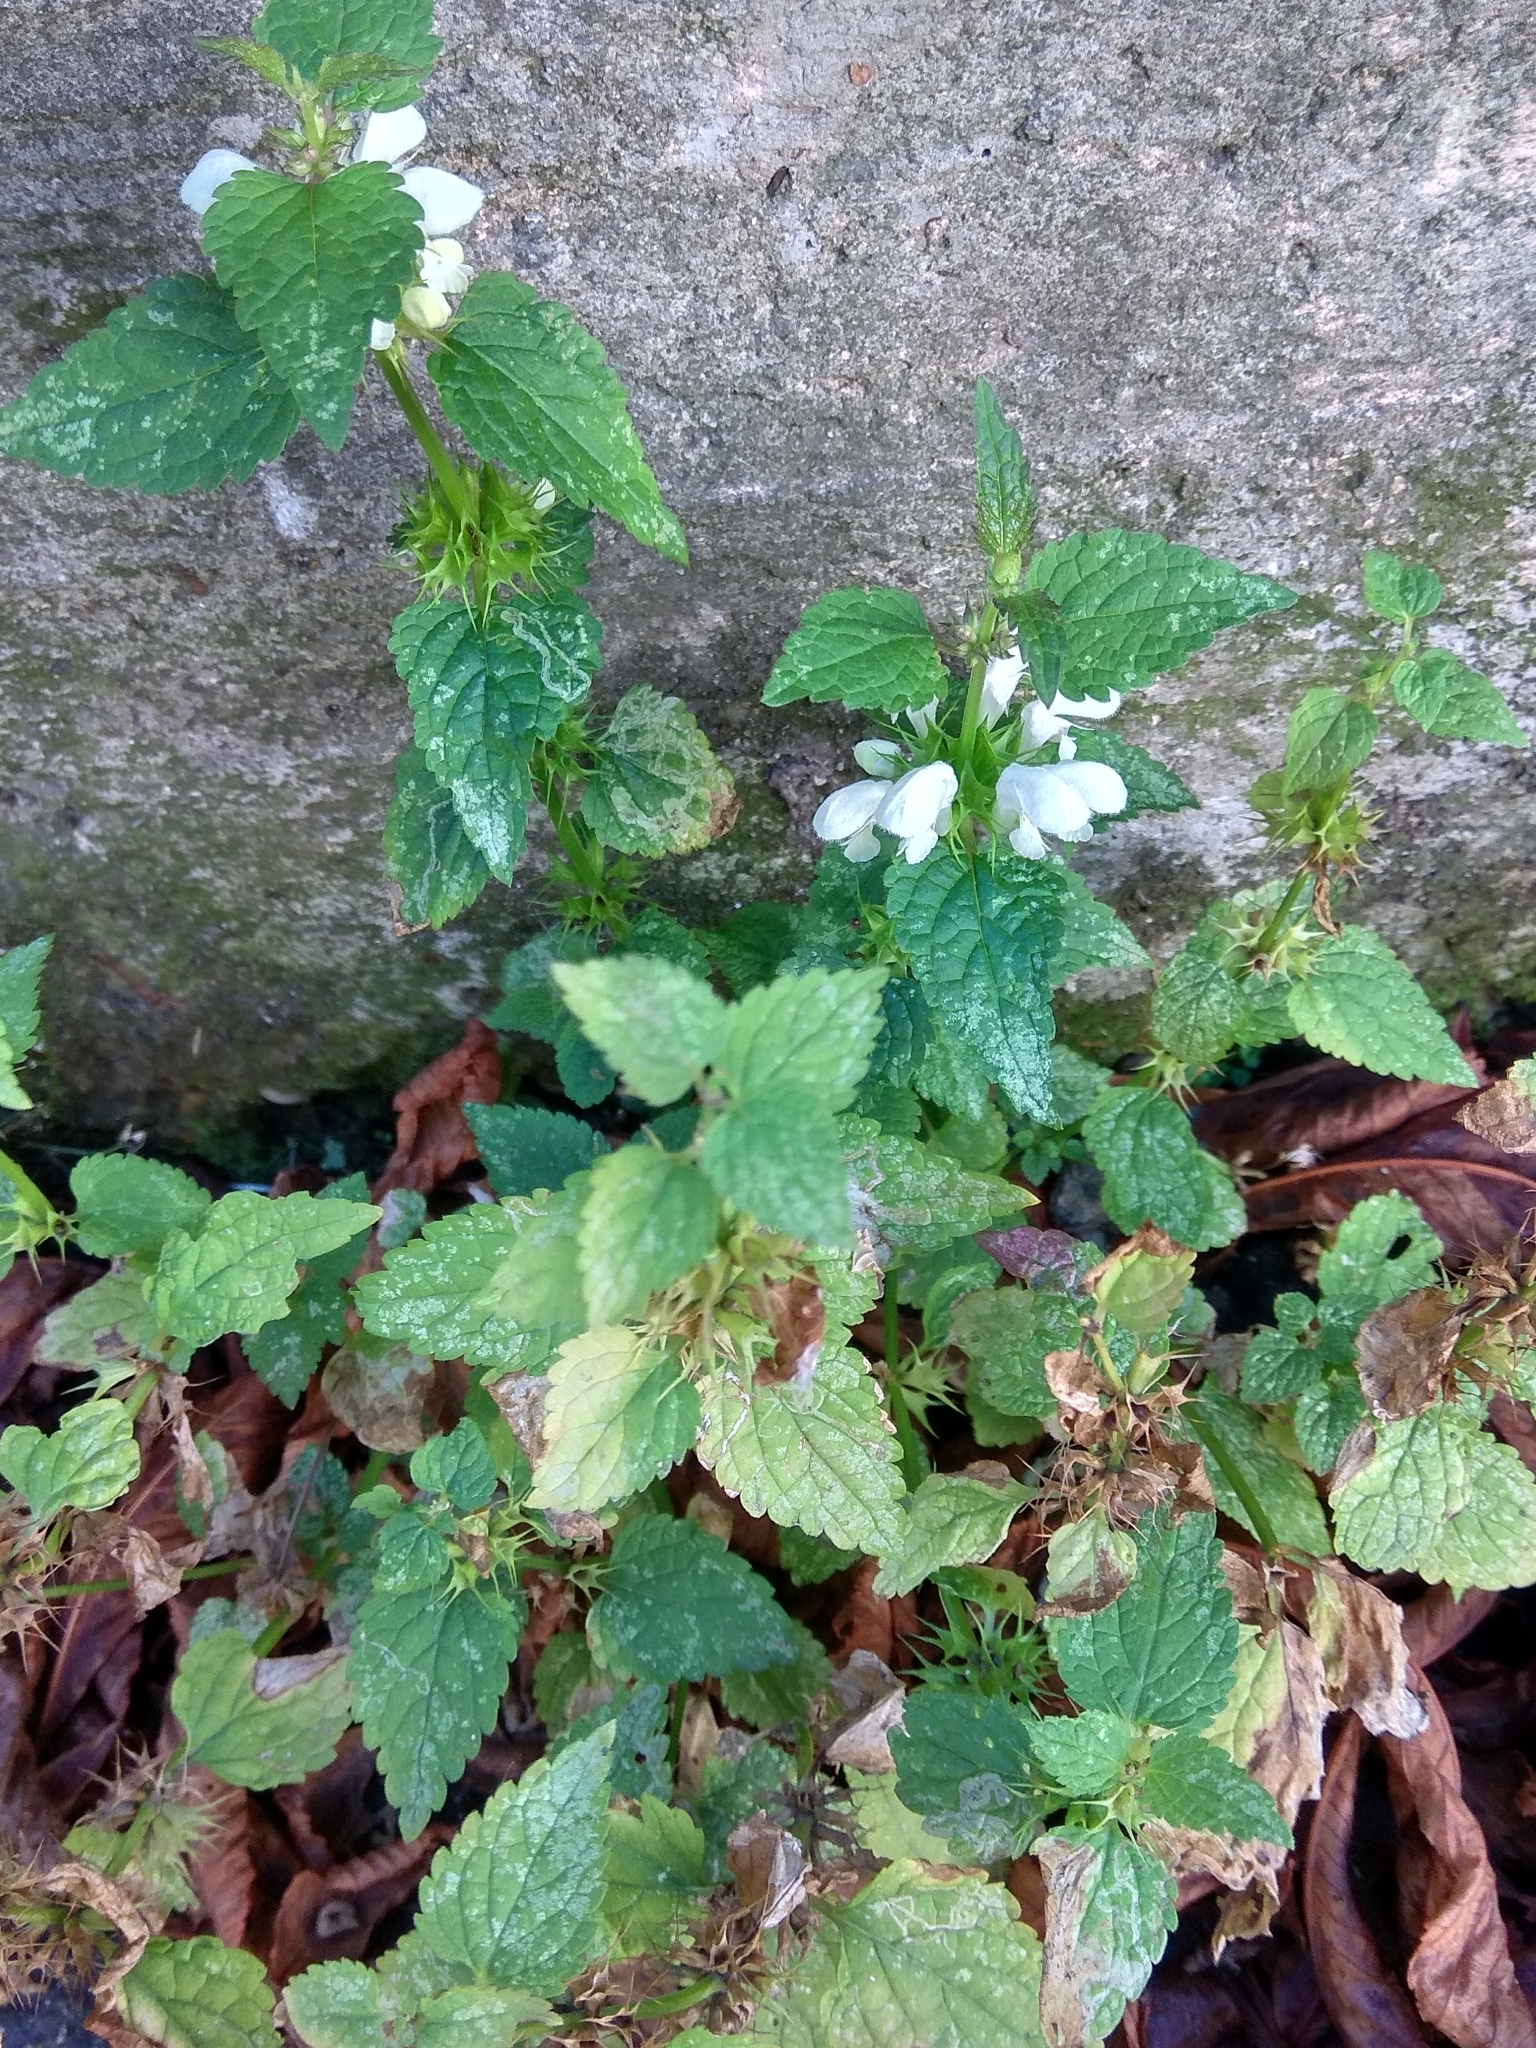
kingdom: Plantae
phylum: Tracheophyta
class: Magnoliopsida
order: Lamiales
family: Lamiaceae
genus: Lamium
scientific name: Lamium album
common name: White dead-nettle
